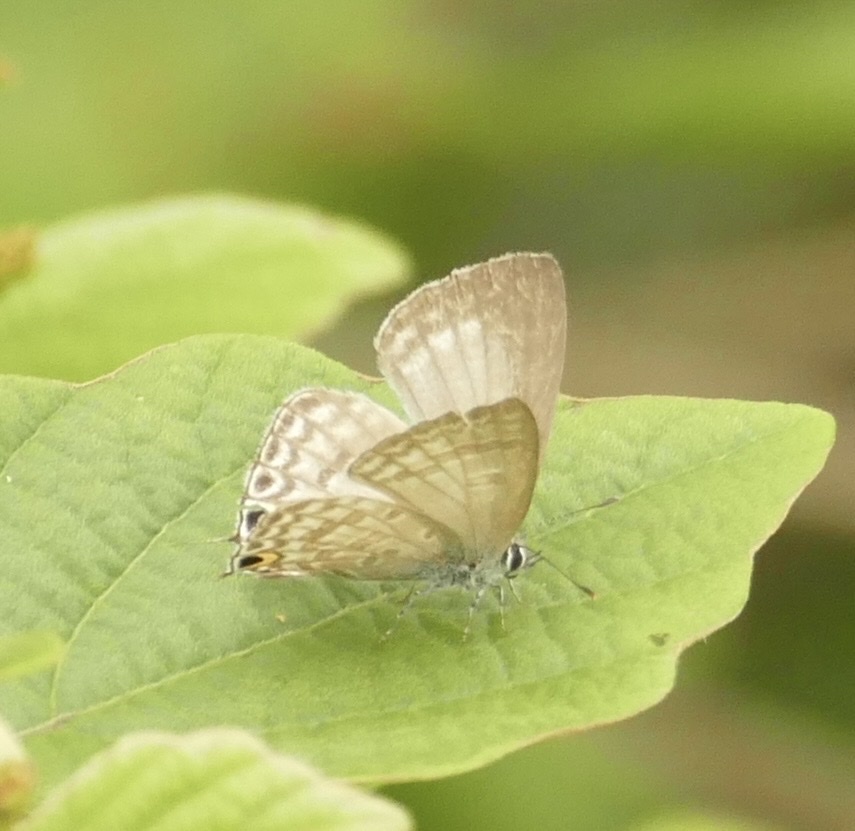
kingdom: Animalia
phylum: Arthropoda
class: Insecta
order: Lepidoptera
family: Lycaenidae
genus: Catochrysops
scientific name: Catochrysops strabo
